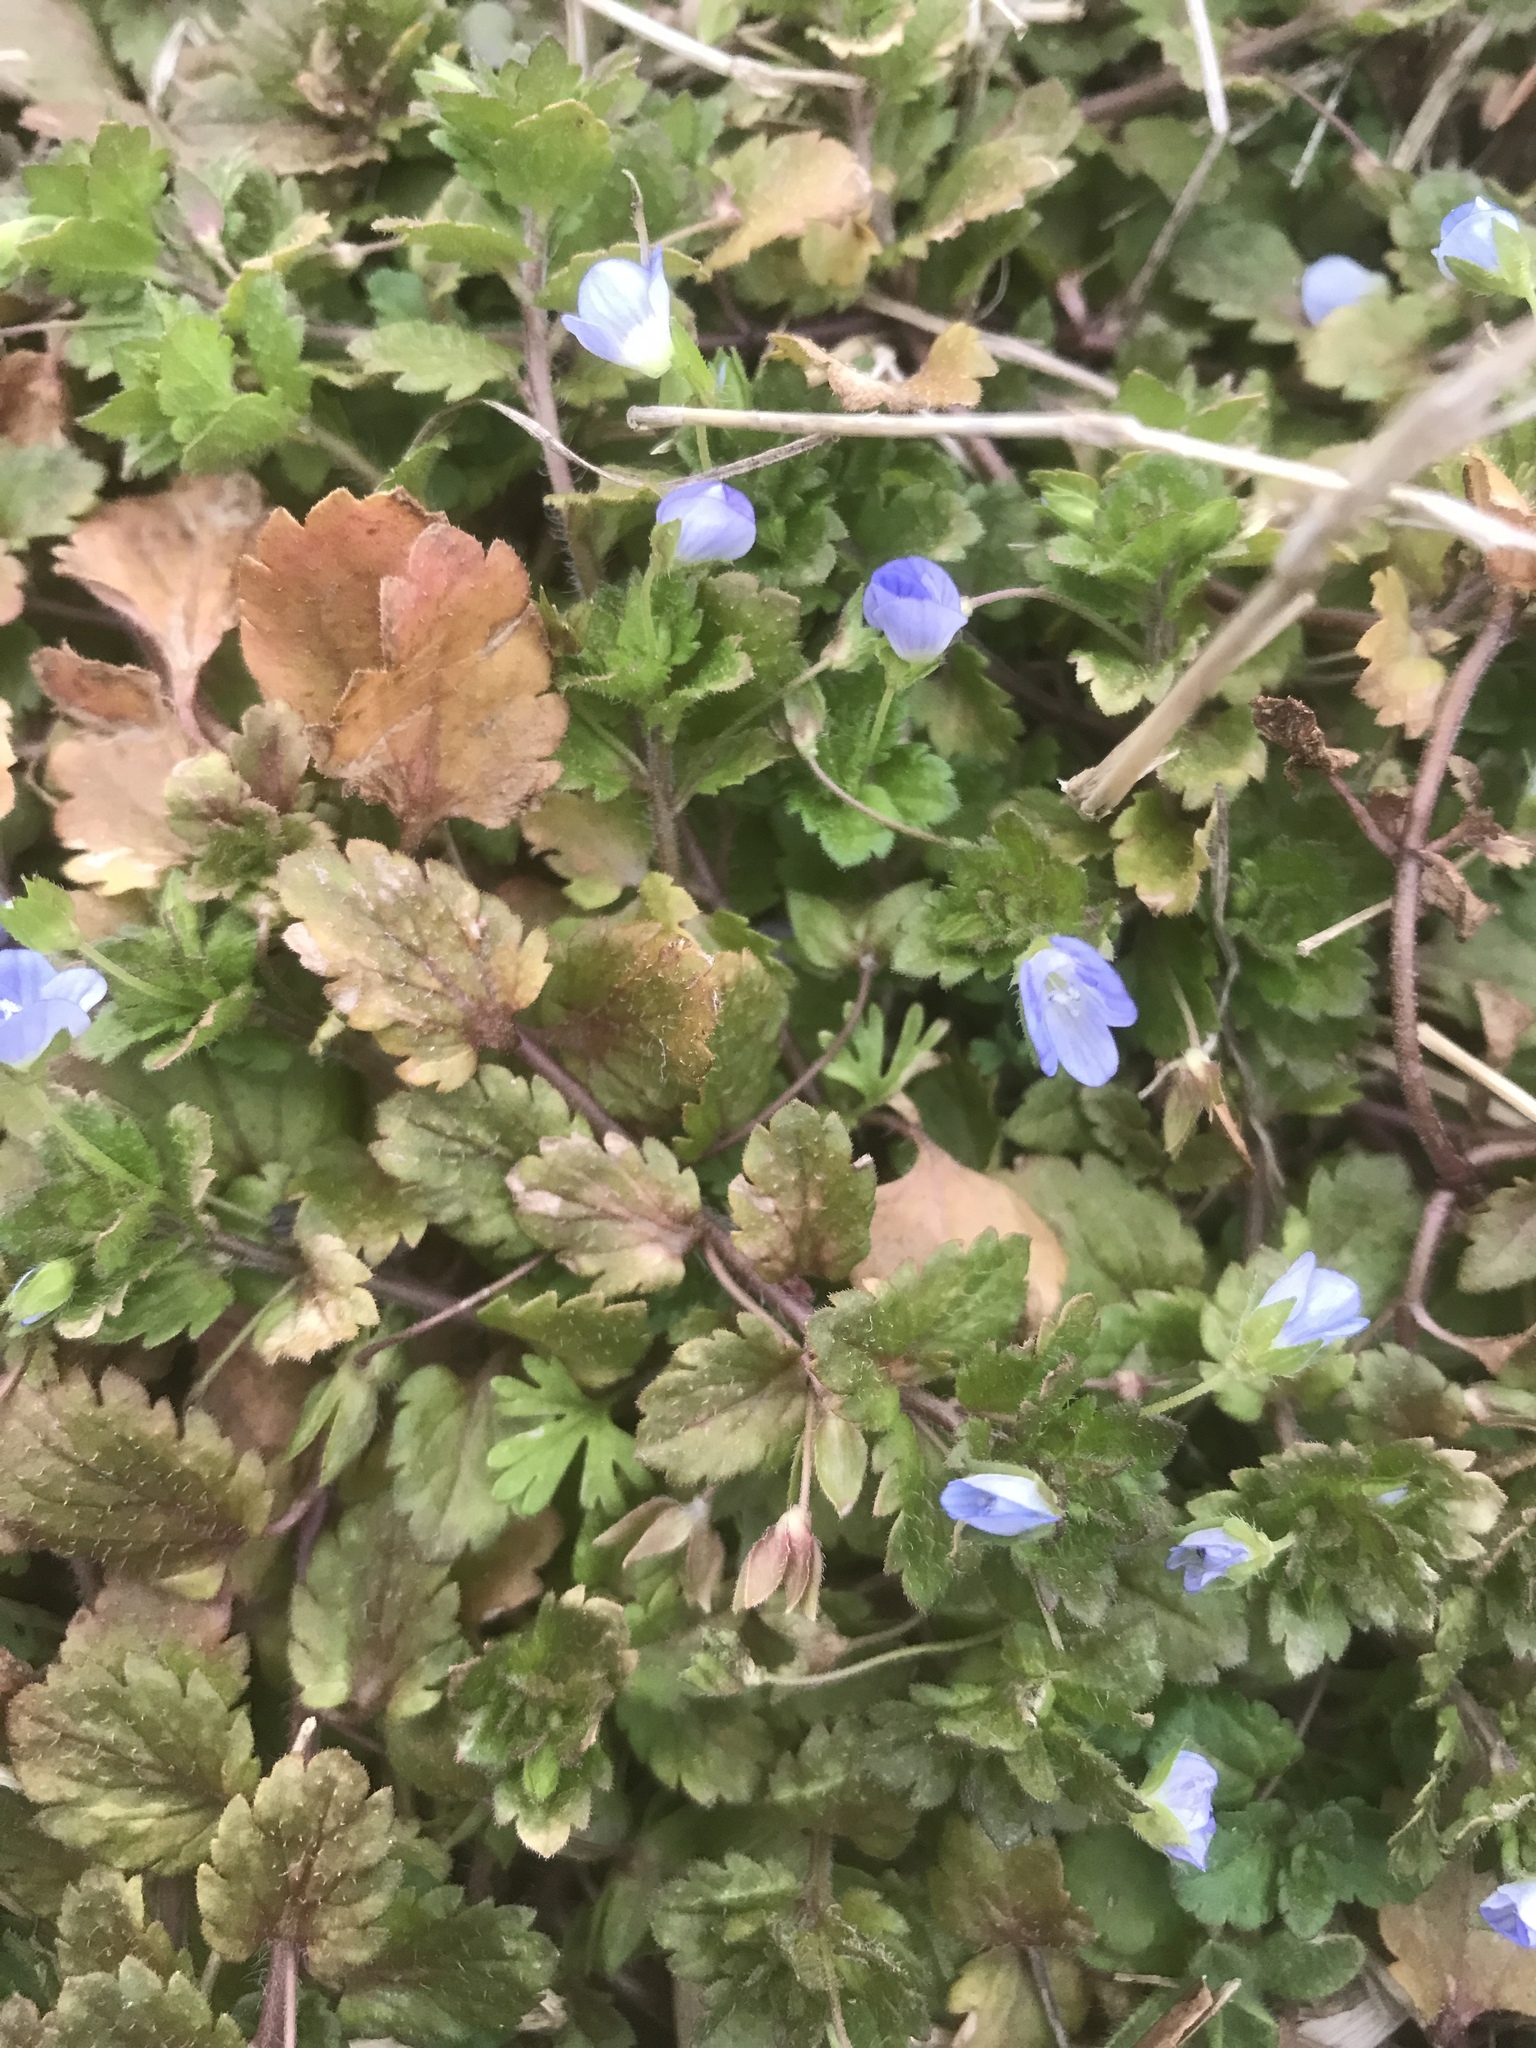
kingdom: Plantae
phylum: Tracheophyta
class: Magnoliopsida
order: Lamiales
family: Plantaginaceae
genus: Veronica
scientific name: Veronica persica
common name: Common field-speedwell
